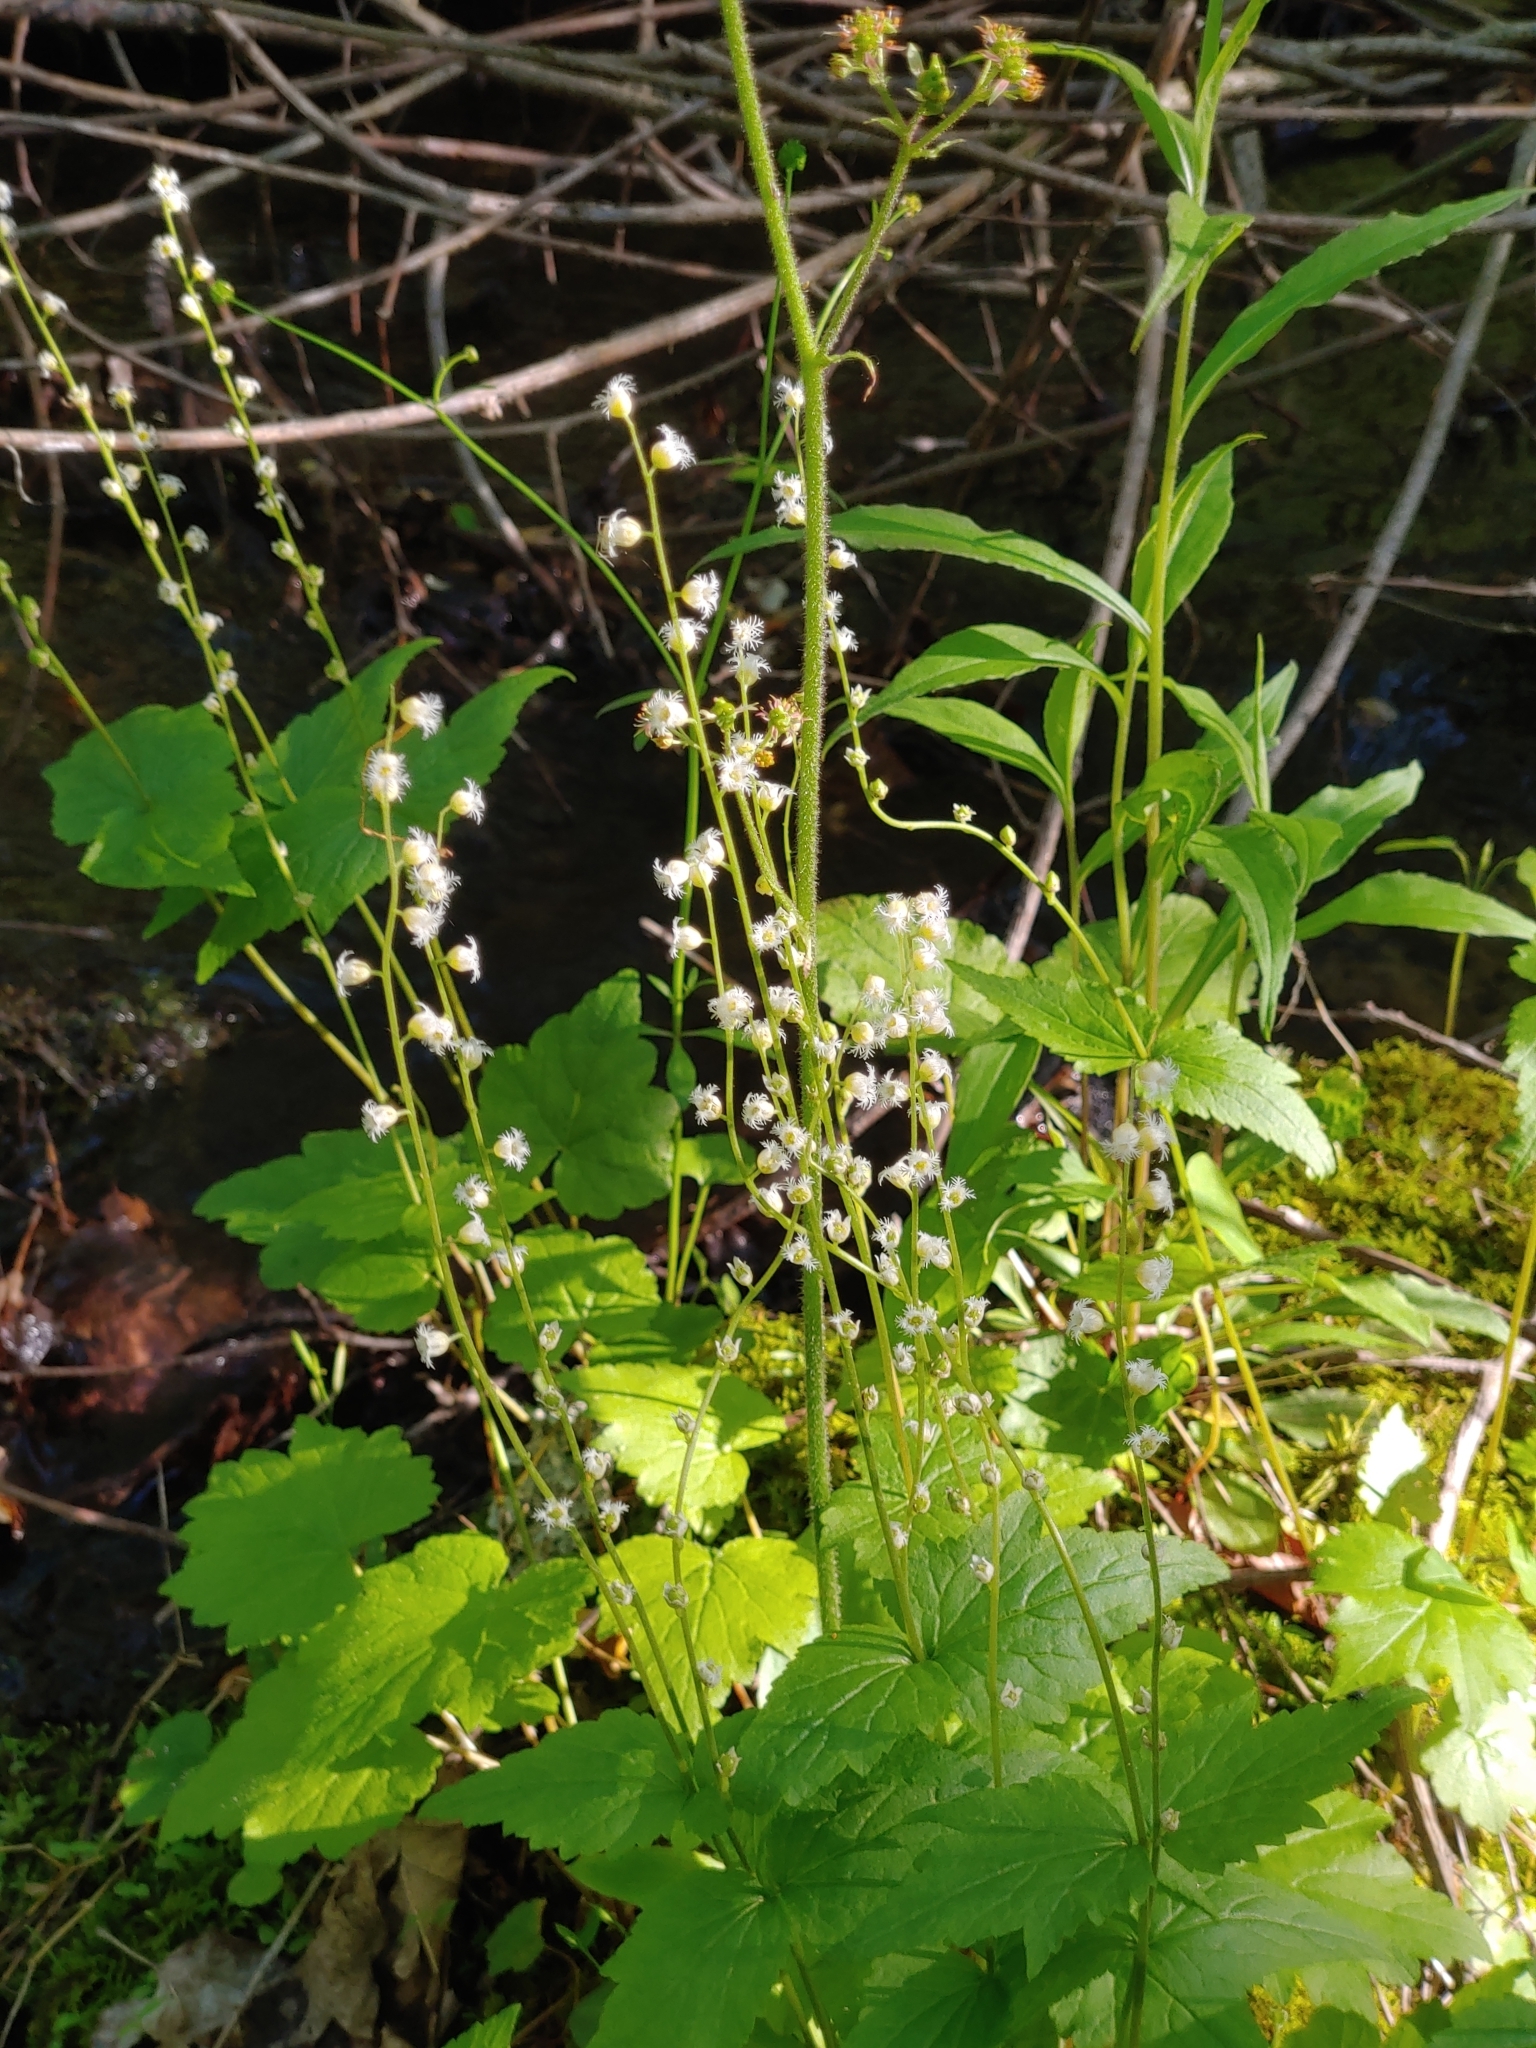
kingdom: Plantae
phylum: Tracheophyta
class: Magnoliopsida
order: Saxifragales
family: Saxifragaceae
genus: Mitella
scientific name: Mitella diphylla
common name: Coolwort
